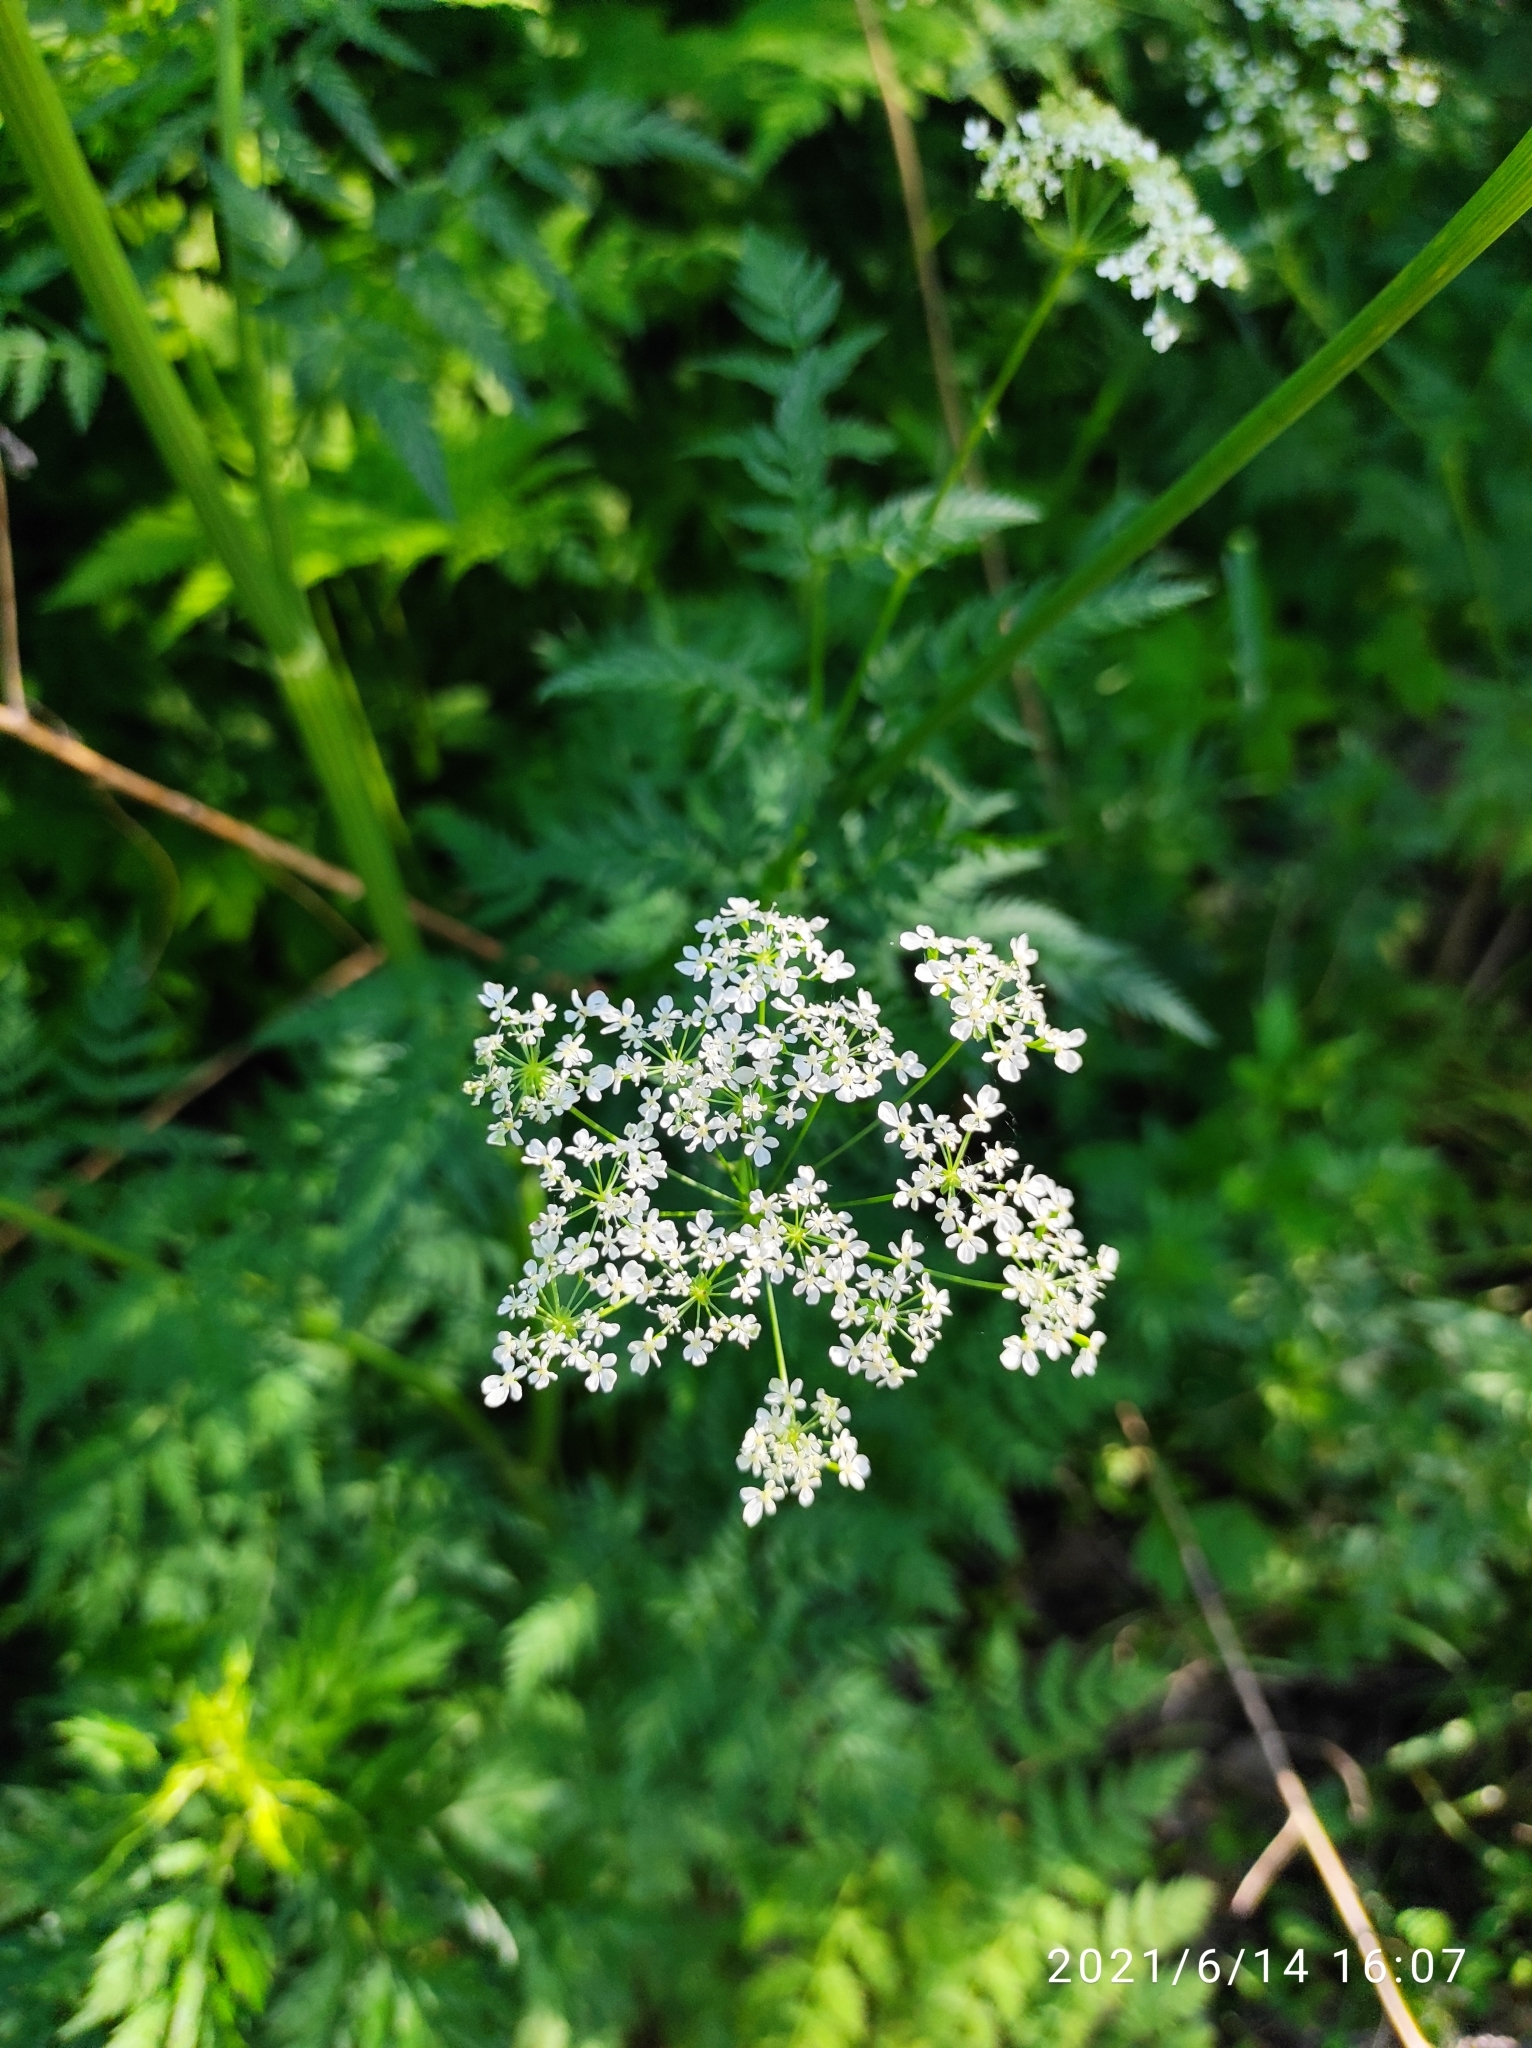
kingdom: Plantae
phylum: Tracheophyta
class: Magnoliopsida
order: Apiales
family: Apiaceae
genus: Anthriscus
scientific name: Anthriscus sylvestris
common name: Cow parsley
